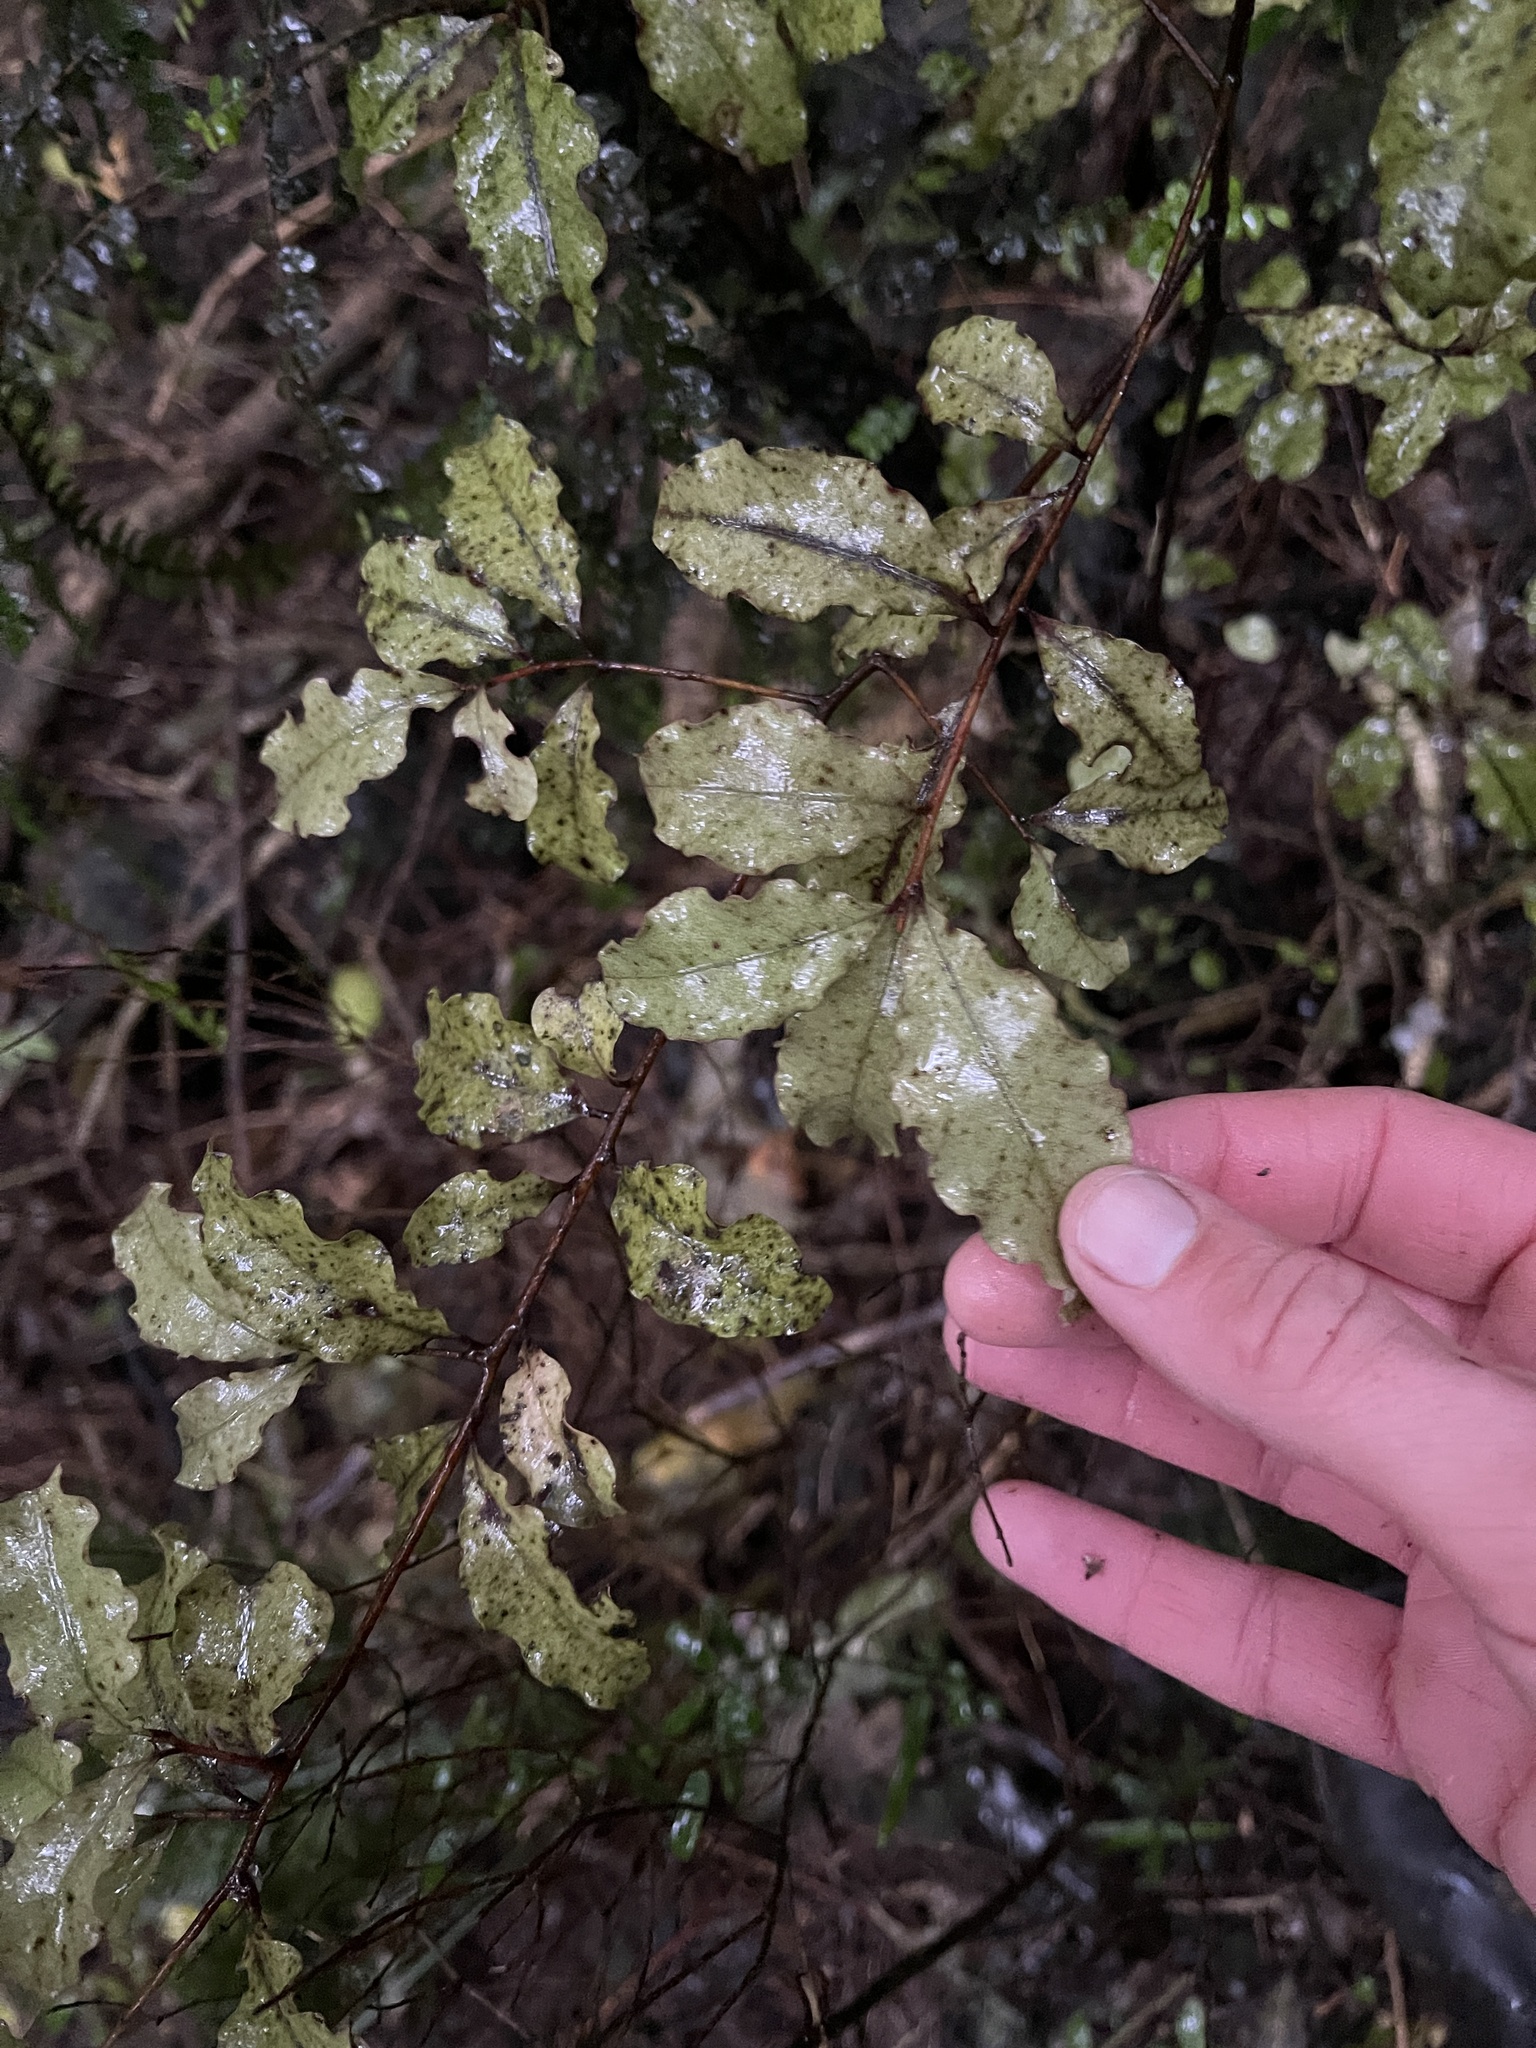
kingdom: Plantae
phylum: Tracheophyta
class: Magnoliopsida
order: Ericales
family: Primulaceae
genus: Myrsine
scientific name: Myrsine australis
